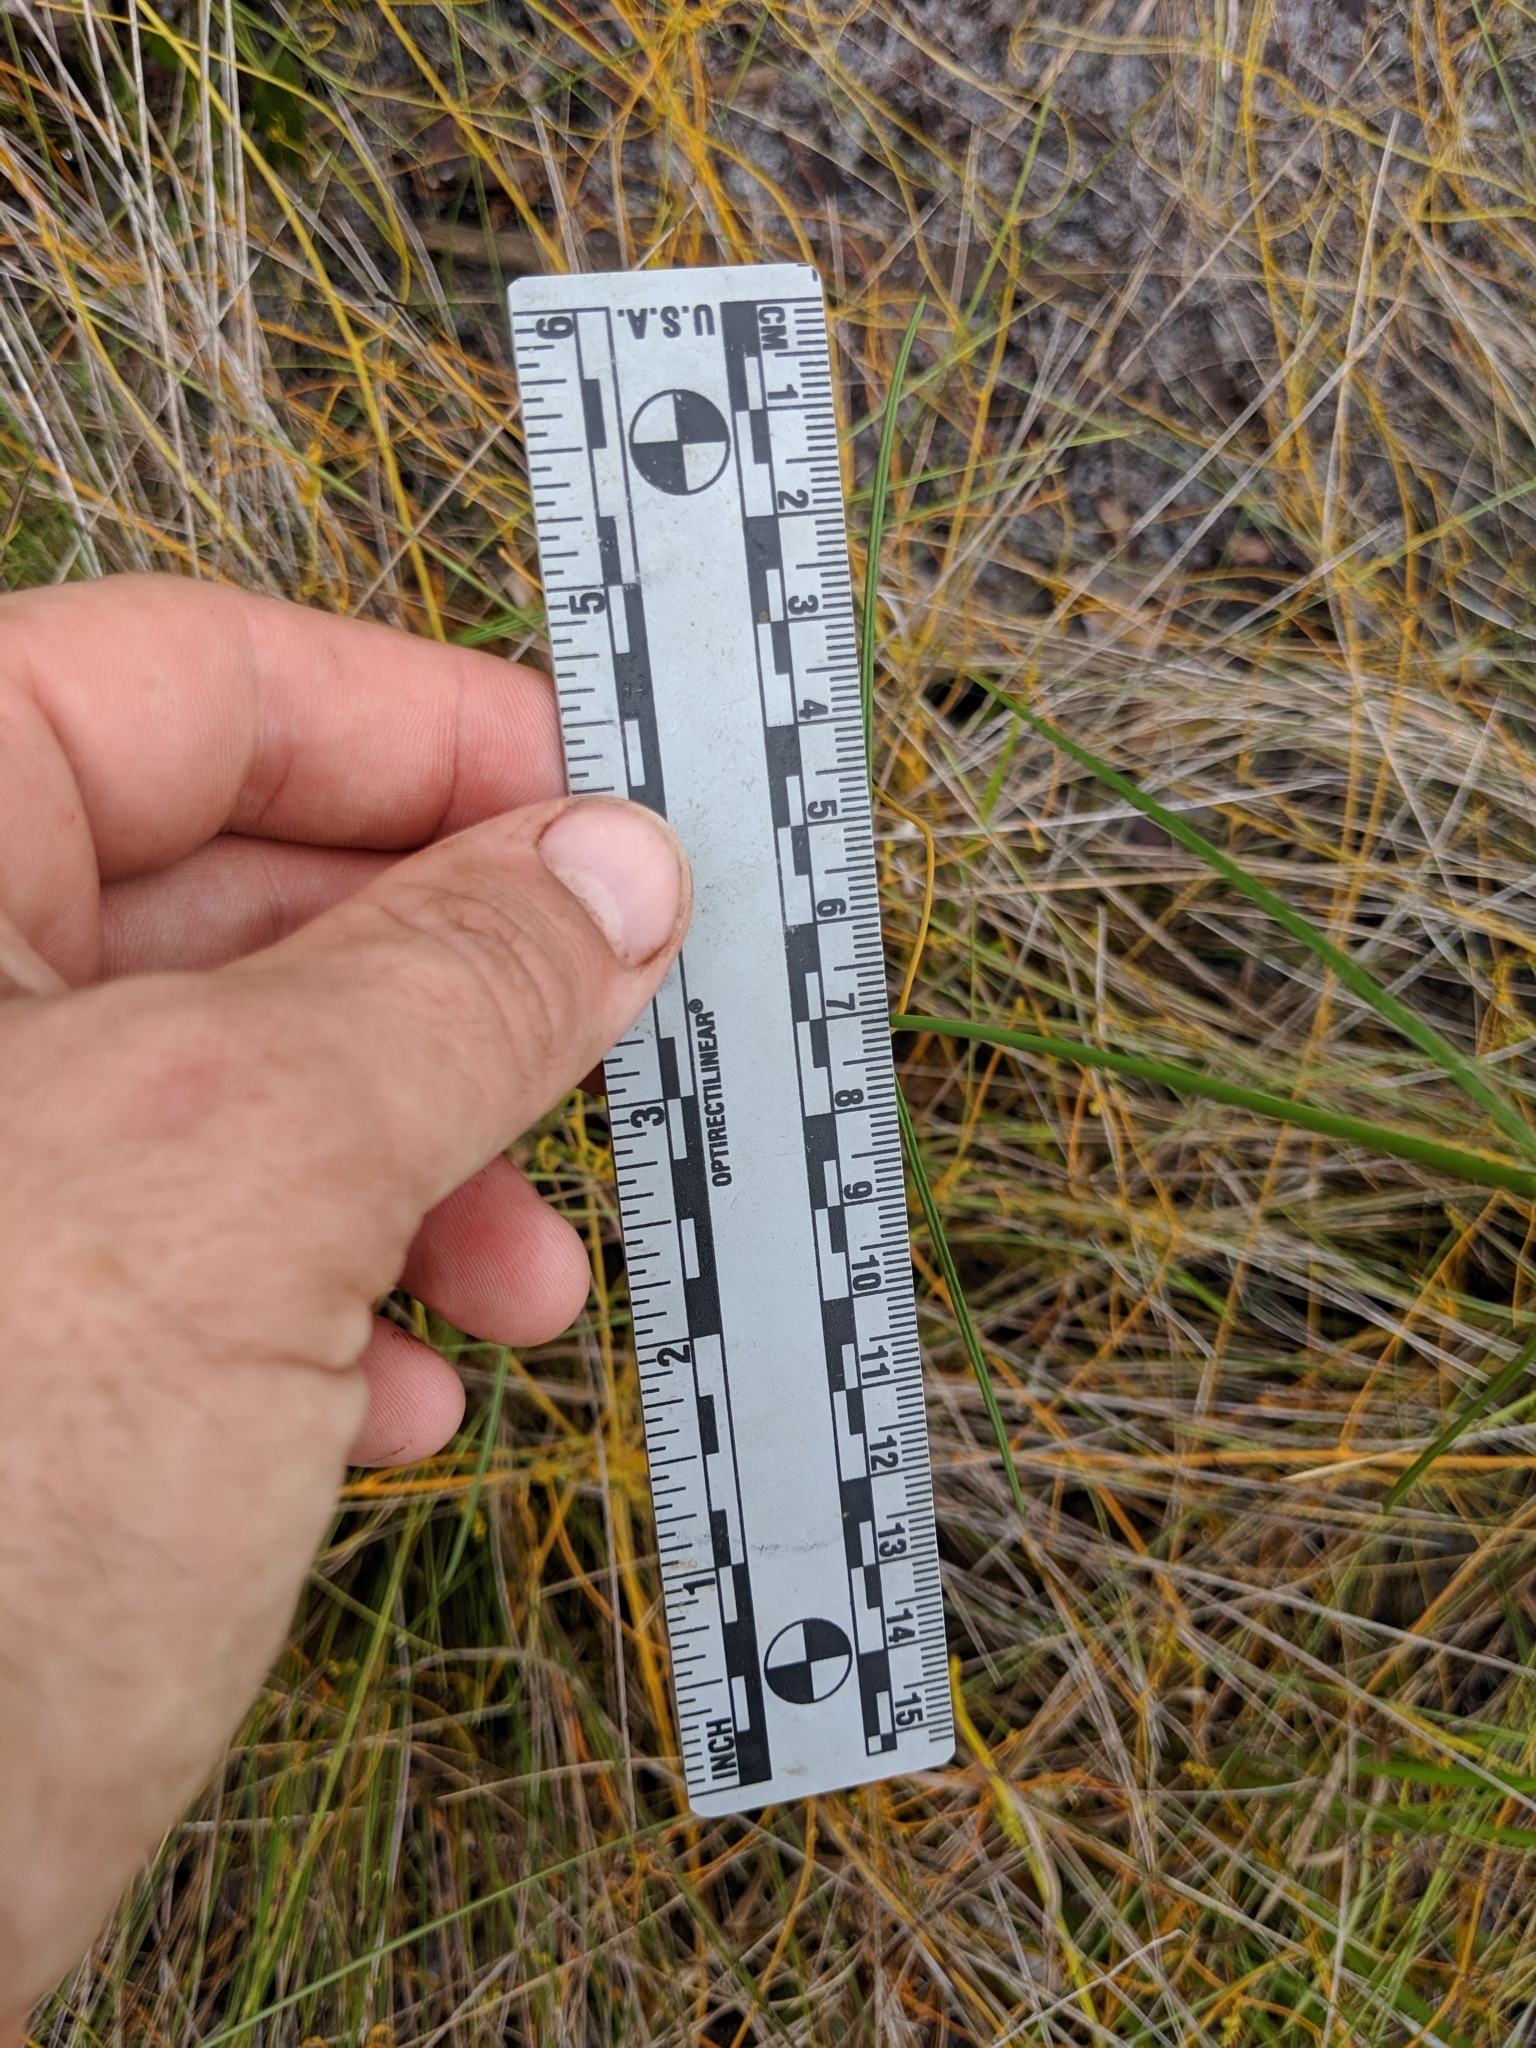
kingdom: Plantae
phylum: Tracheophyta
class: Magnoliopsida
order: Gentianales
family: Apocynaceae
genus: Asclepias
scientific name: Asclepias feayi
